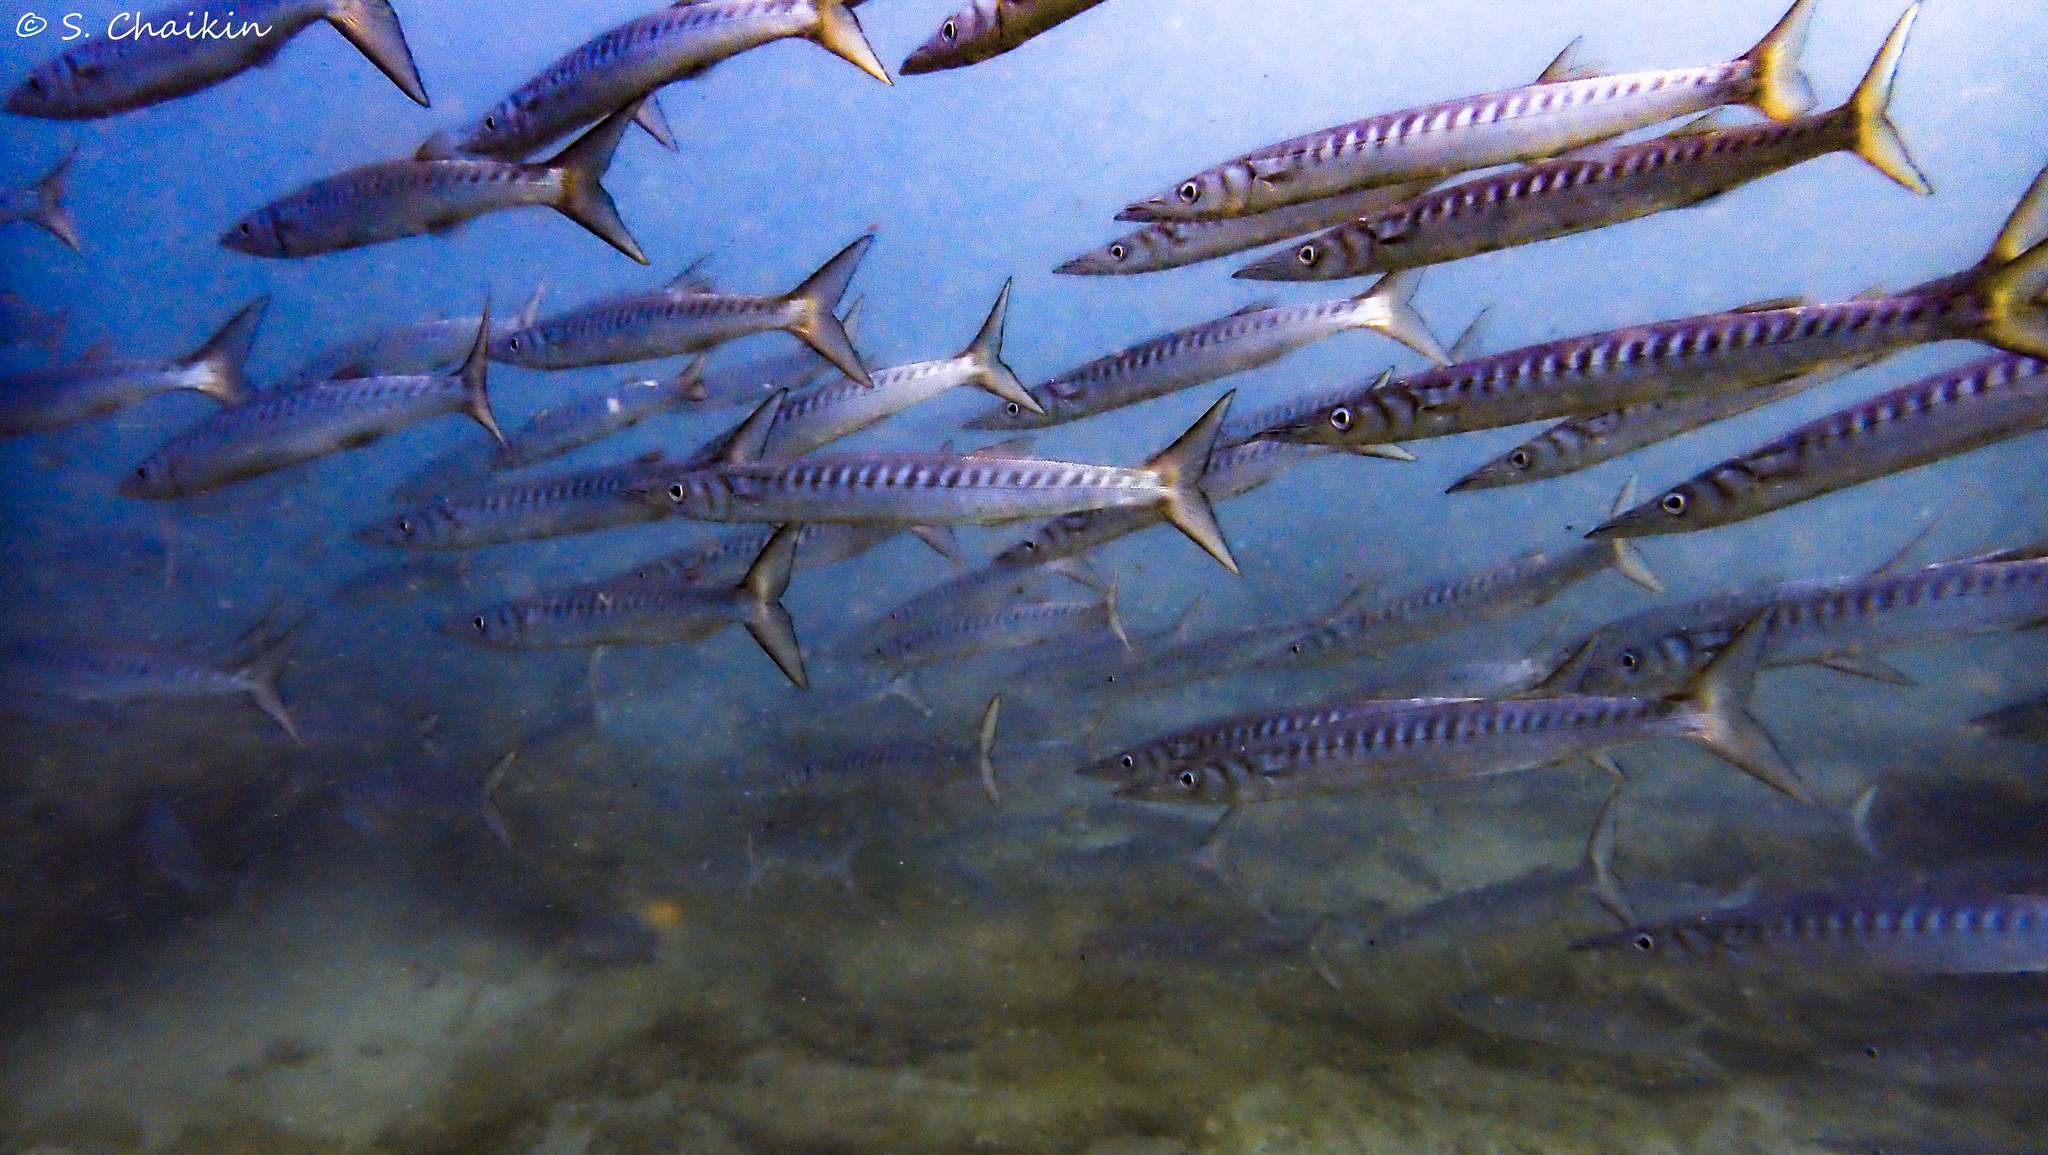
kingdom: Animalia
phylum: Chordata
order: Perciformes
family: Sphyraenidae
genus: Sphyraena
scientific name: Sphyraena viridensis
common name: Yellowmouth barracuda
